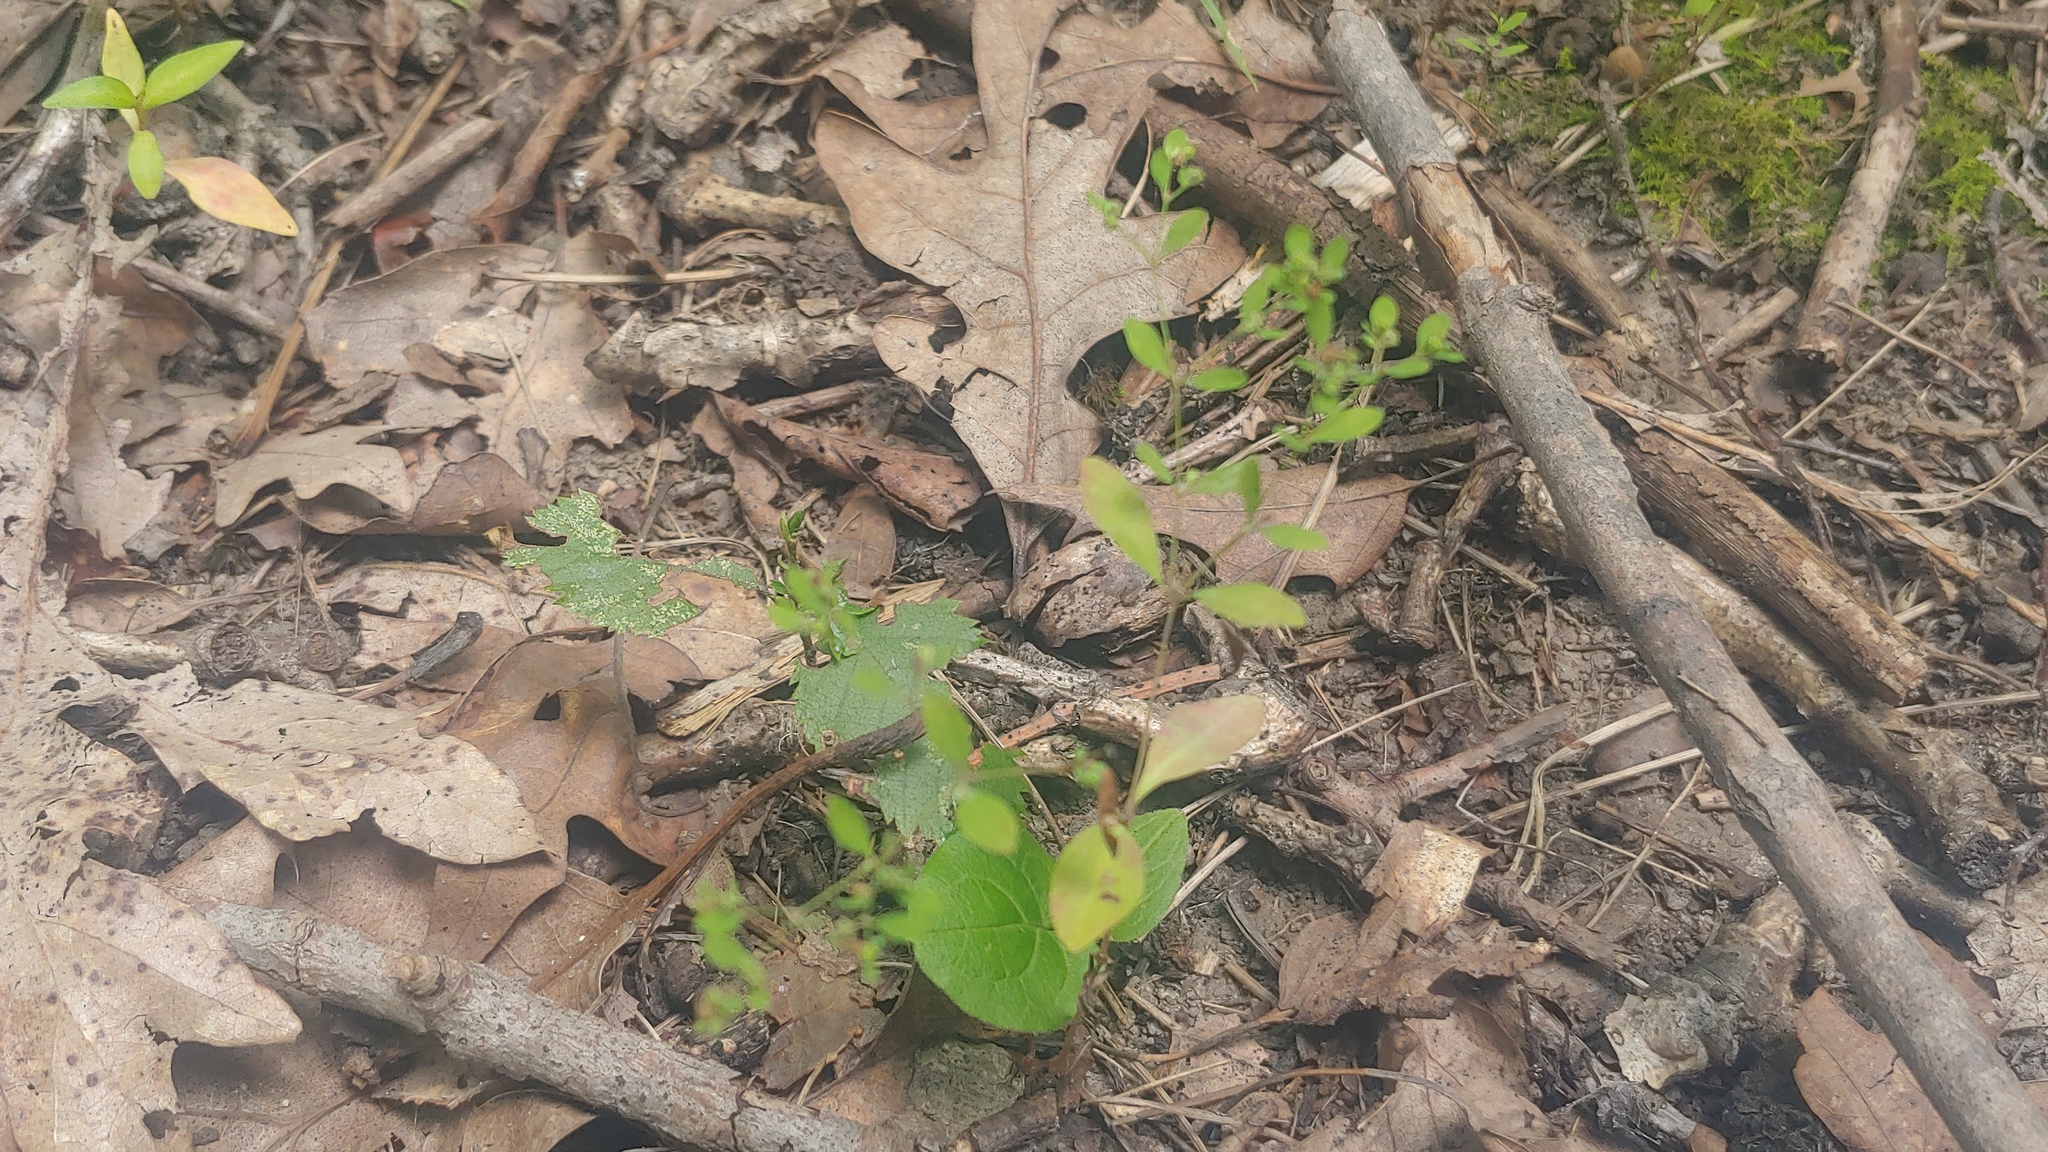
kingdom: Plantae
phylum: Tracheophyta
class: Magnoliopsida
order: Caryophyllales
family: Caryophyllaceae
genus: Paronychia
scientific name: Paronychia canadensis
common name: Canada forked nailwort
